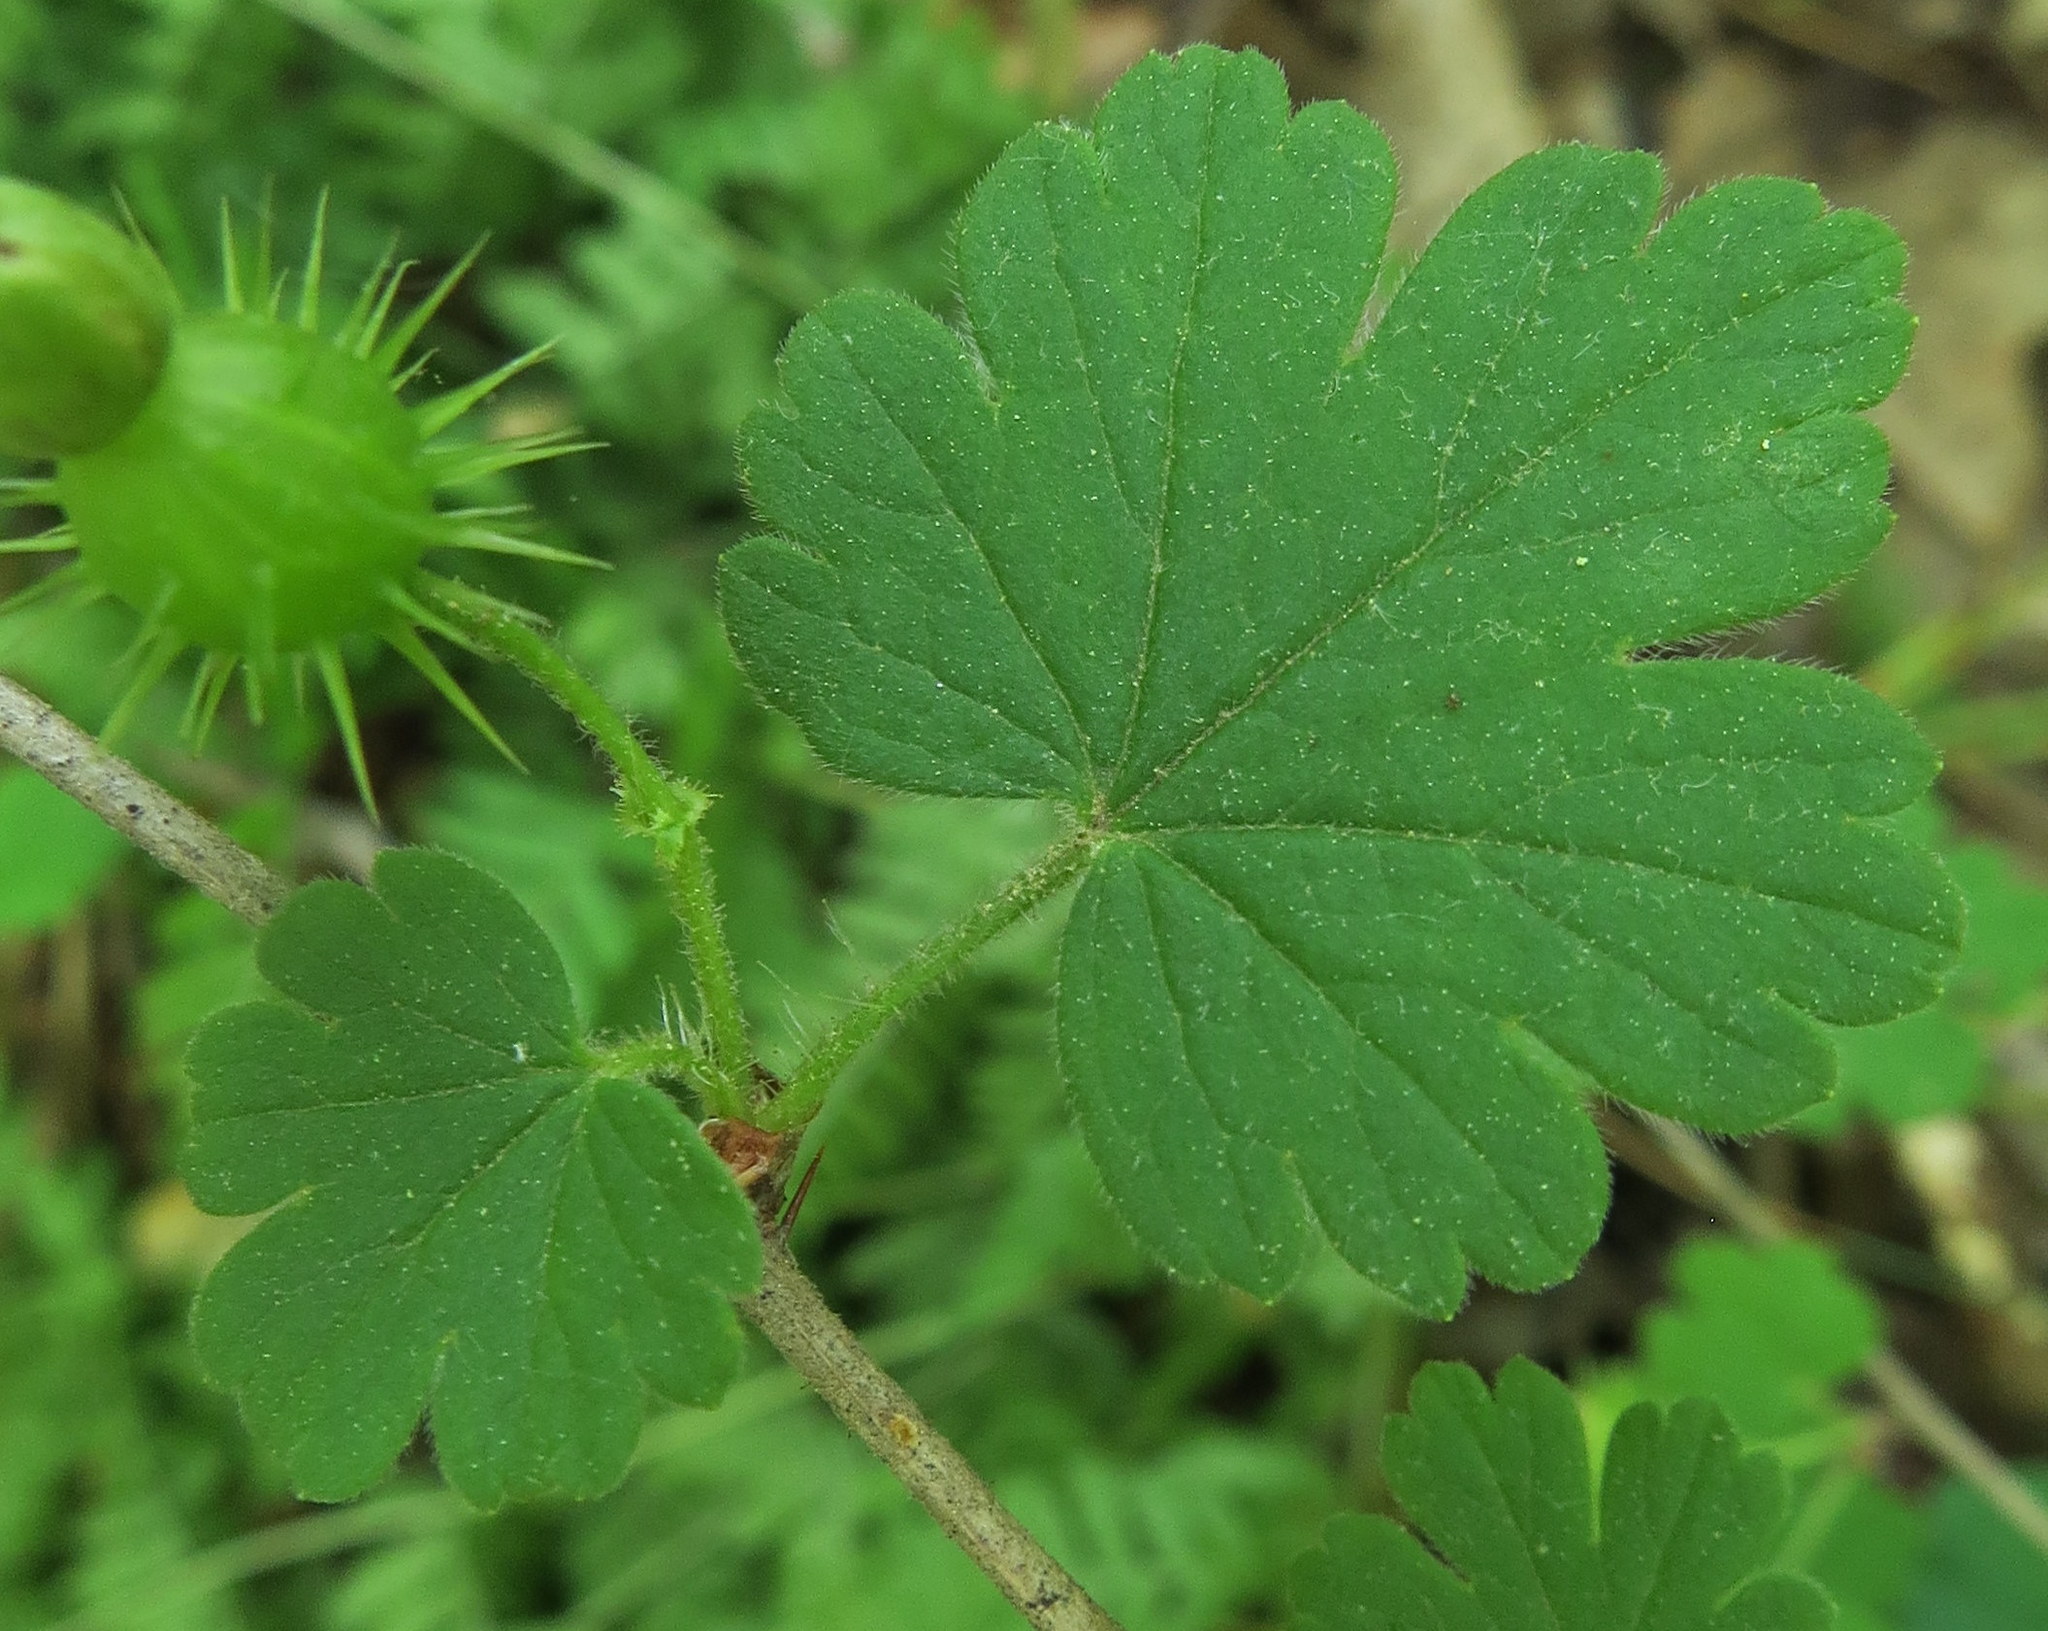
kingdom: Plantae
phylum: Tracheophyta
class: Magnoliopsida
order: Saxifragales
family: Grossulariaceae
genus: Ribes
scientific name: Ribes cynosbati
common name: American gooseberry
